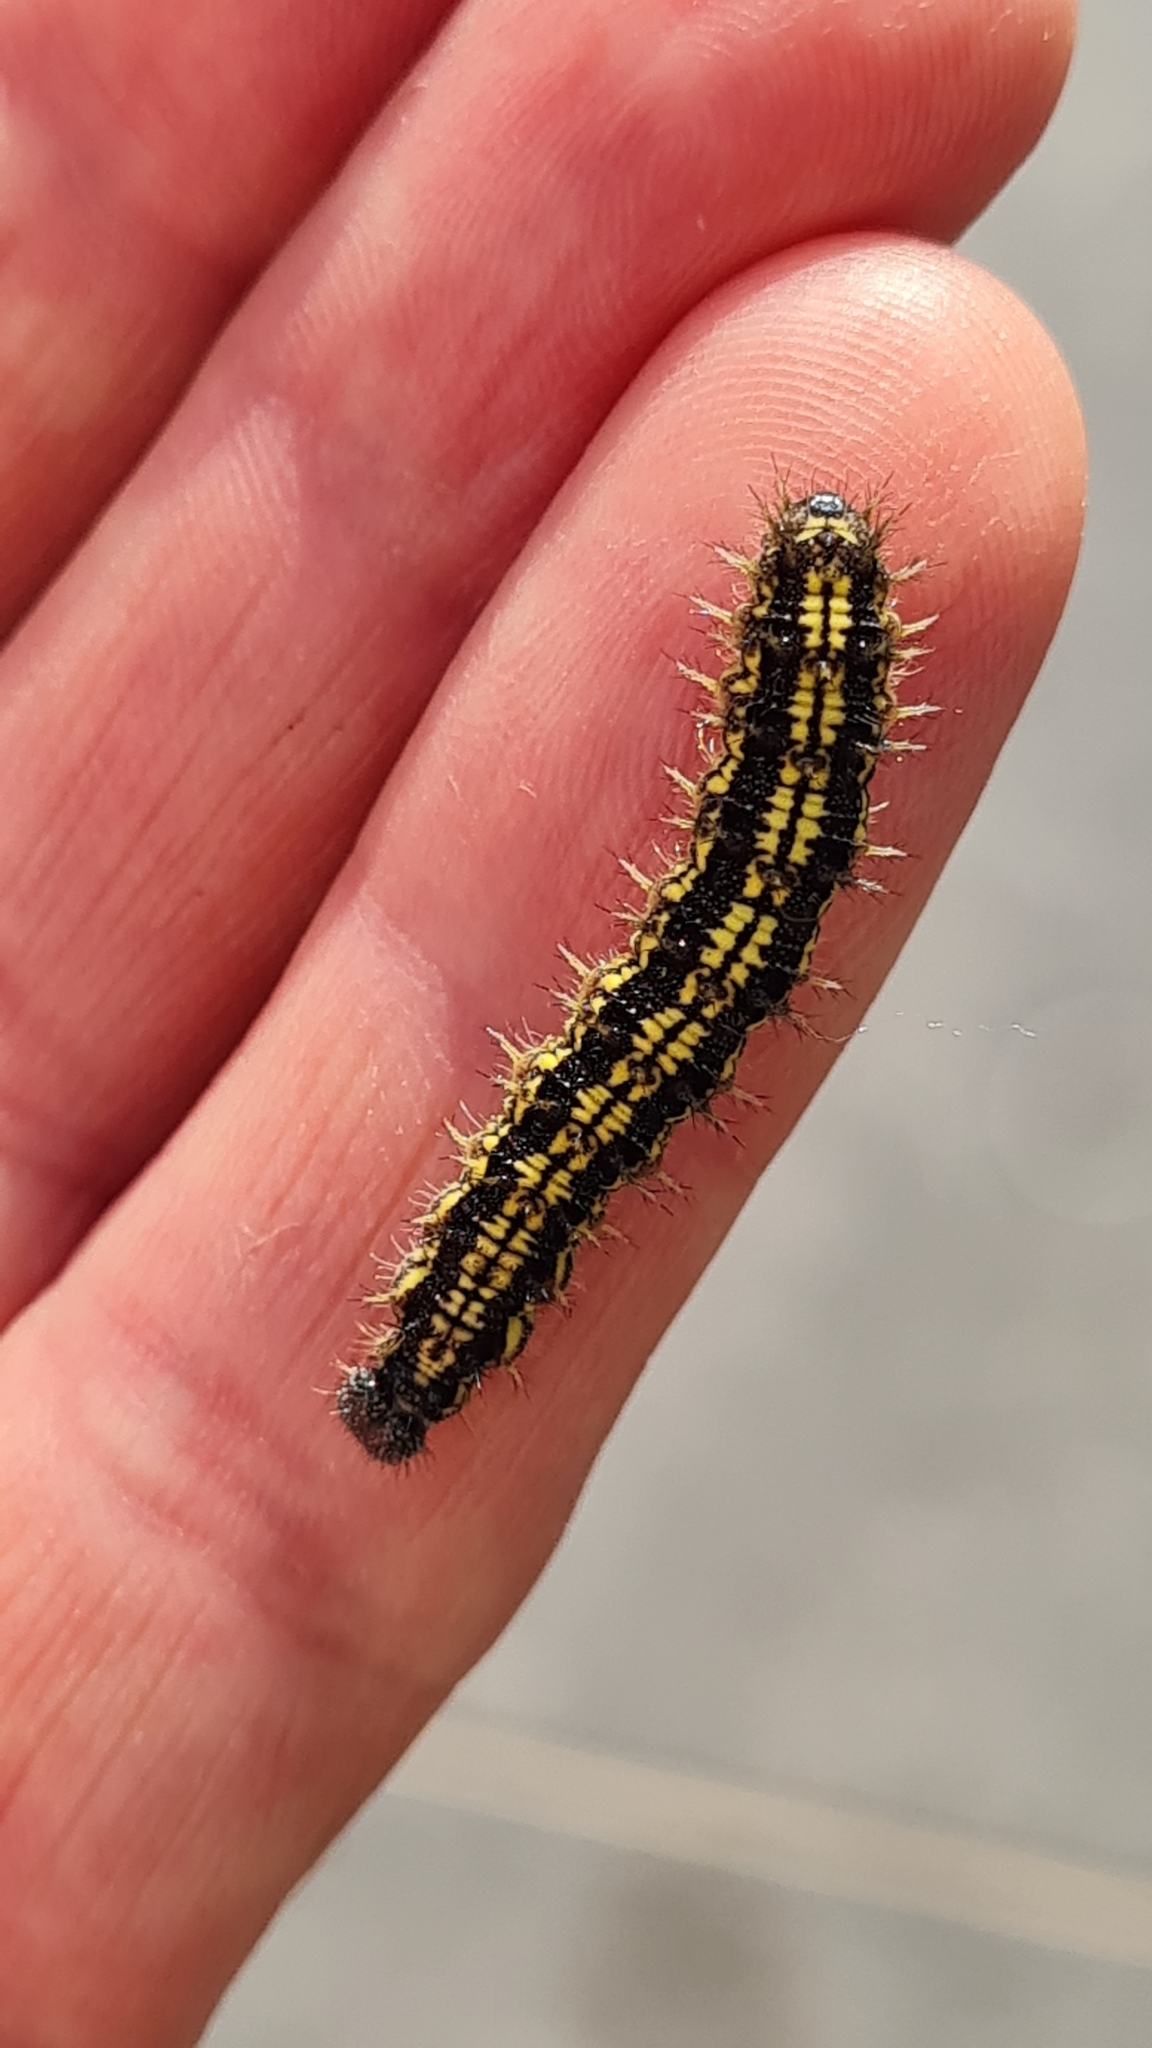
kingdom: Animalia
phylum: Arthropoda
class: Insecta
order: Lepidoptera
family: Nymphalidae
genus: Aglais
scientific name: Aglais urticae
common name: Small tortoiseshell
